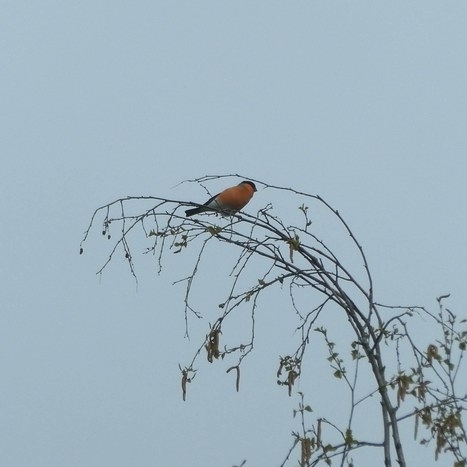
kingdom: Animalia
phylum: Chordata
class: Aves
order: Passeriformes
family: Fringillidae
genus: Pyrrhula
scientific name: Pyrrhula pyrrhula
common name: Eurasian bullfinch
